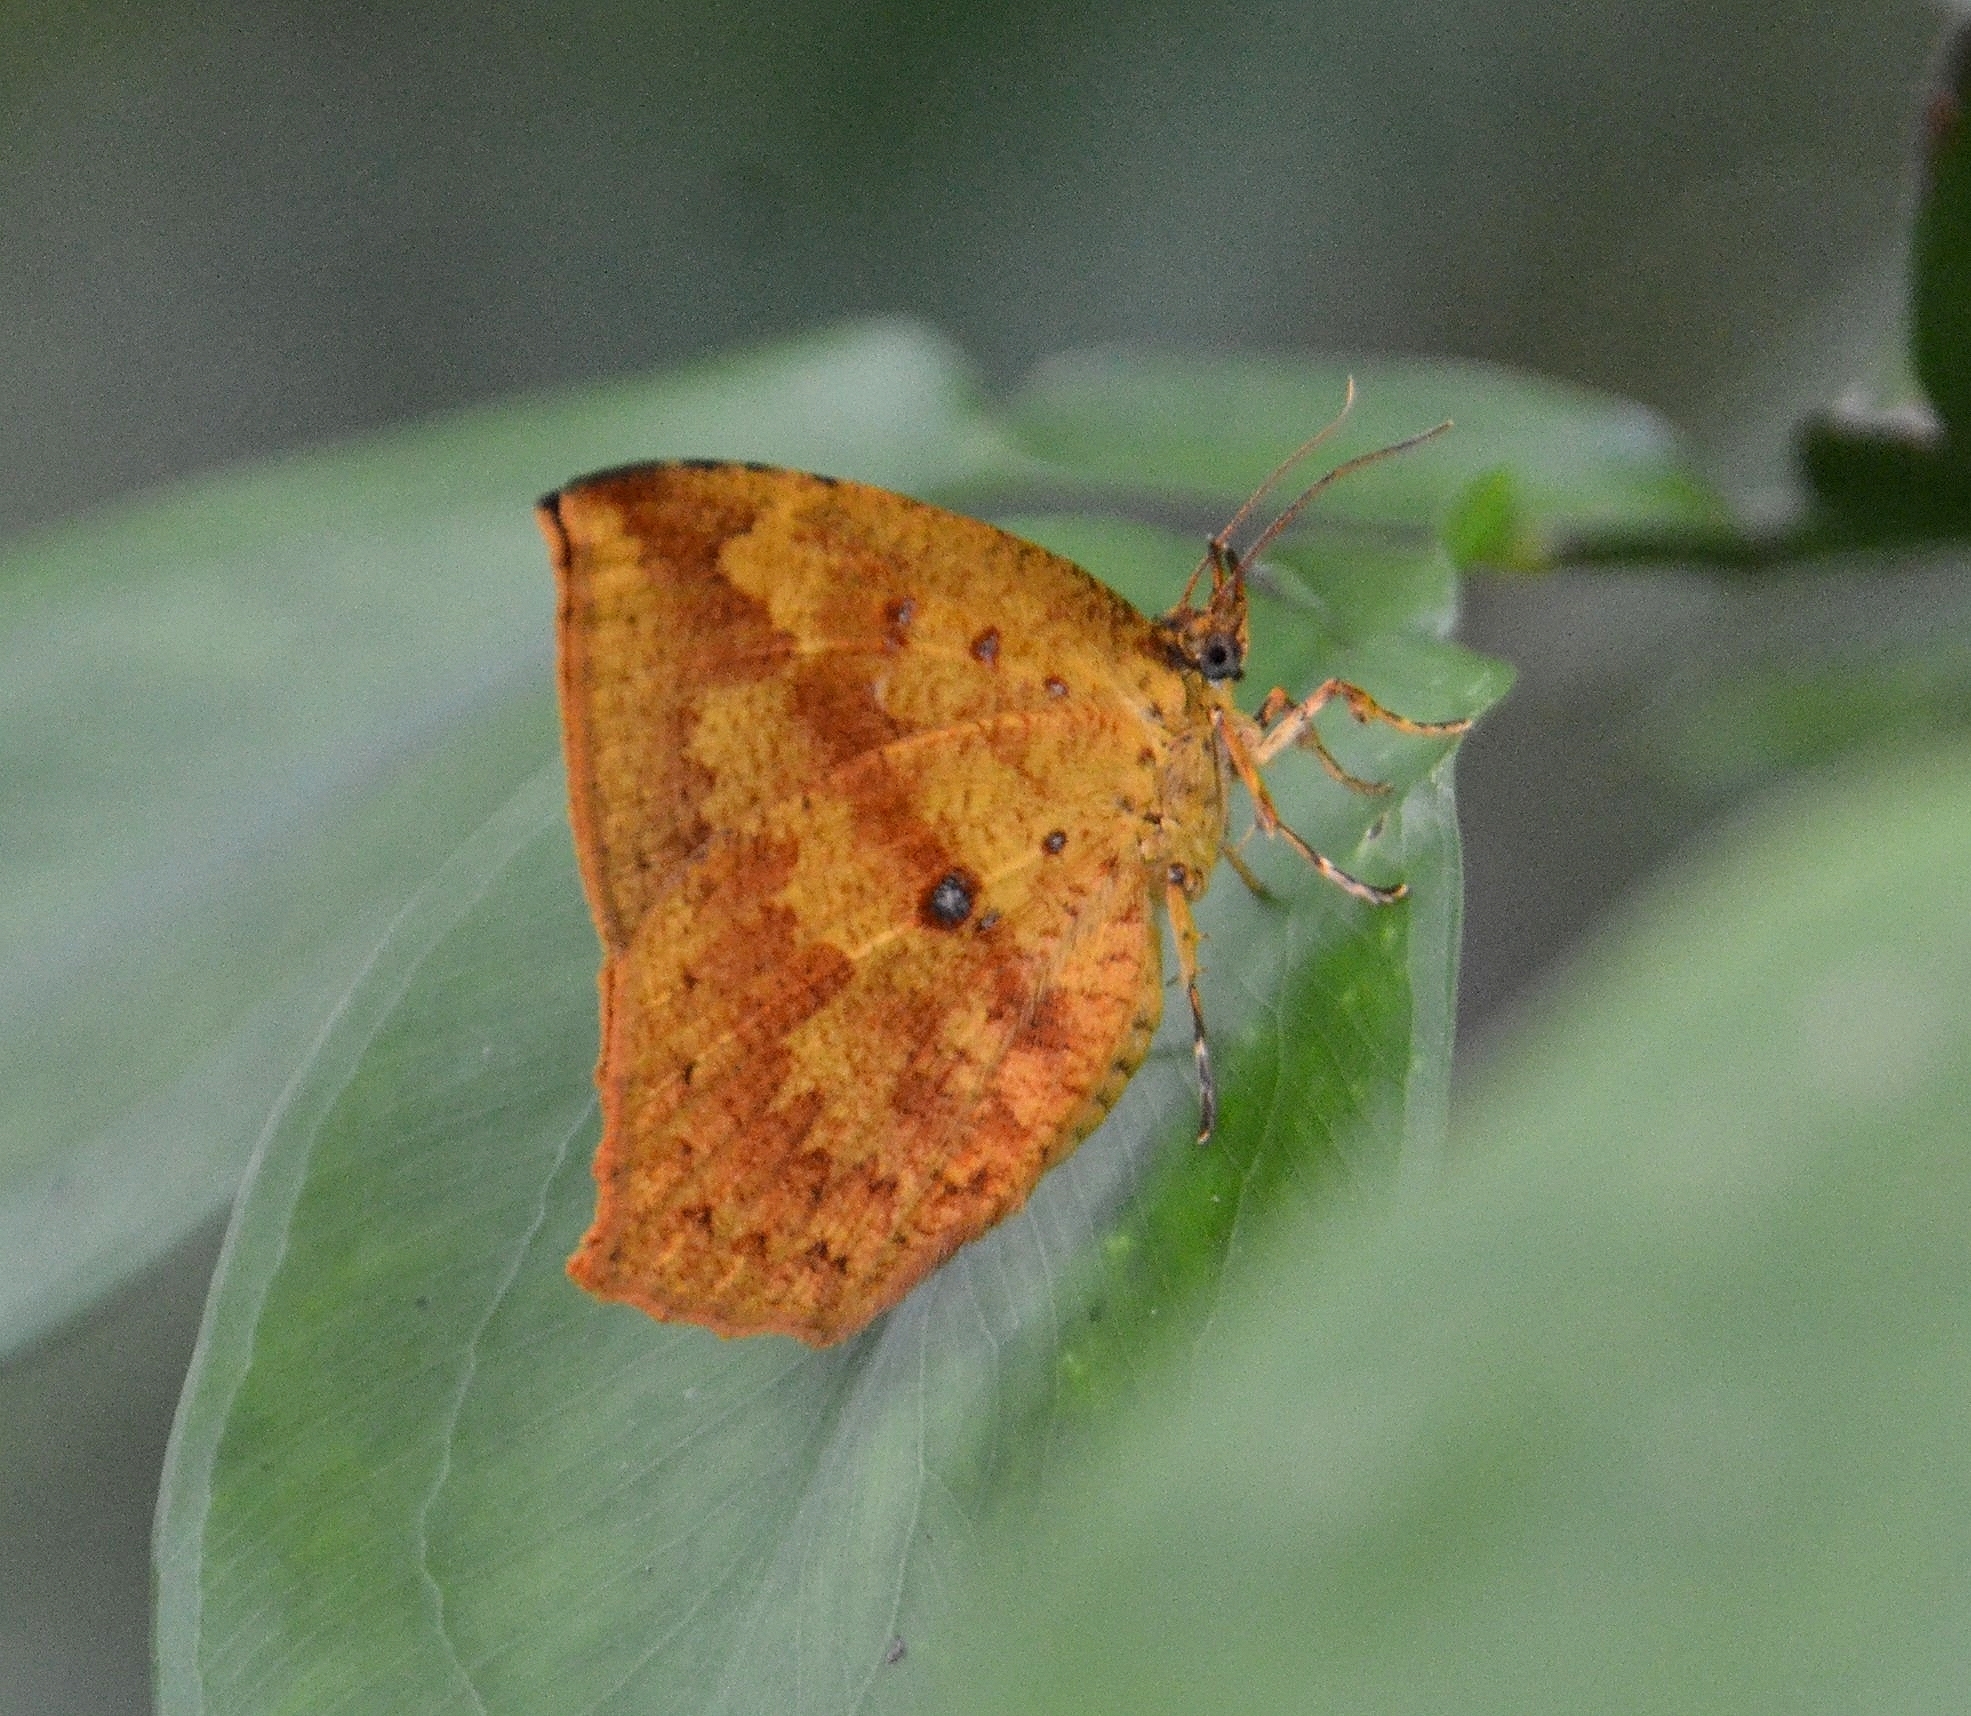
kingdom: Animalia
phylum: Arthropoda
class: Insecta
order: Lepidoptera
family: Callidulidae
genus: Tetragonus
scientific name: Tetragonus catamitus
